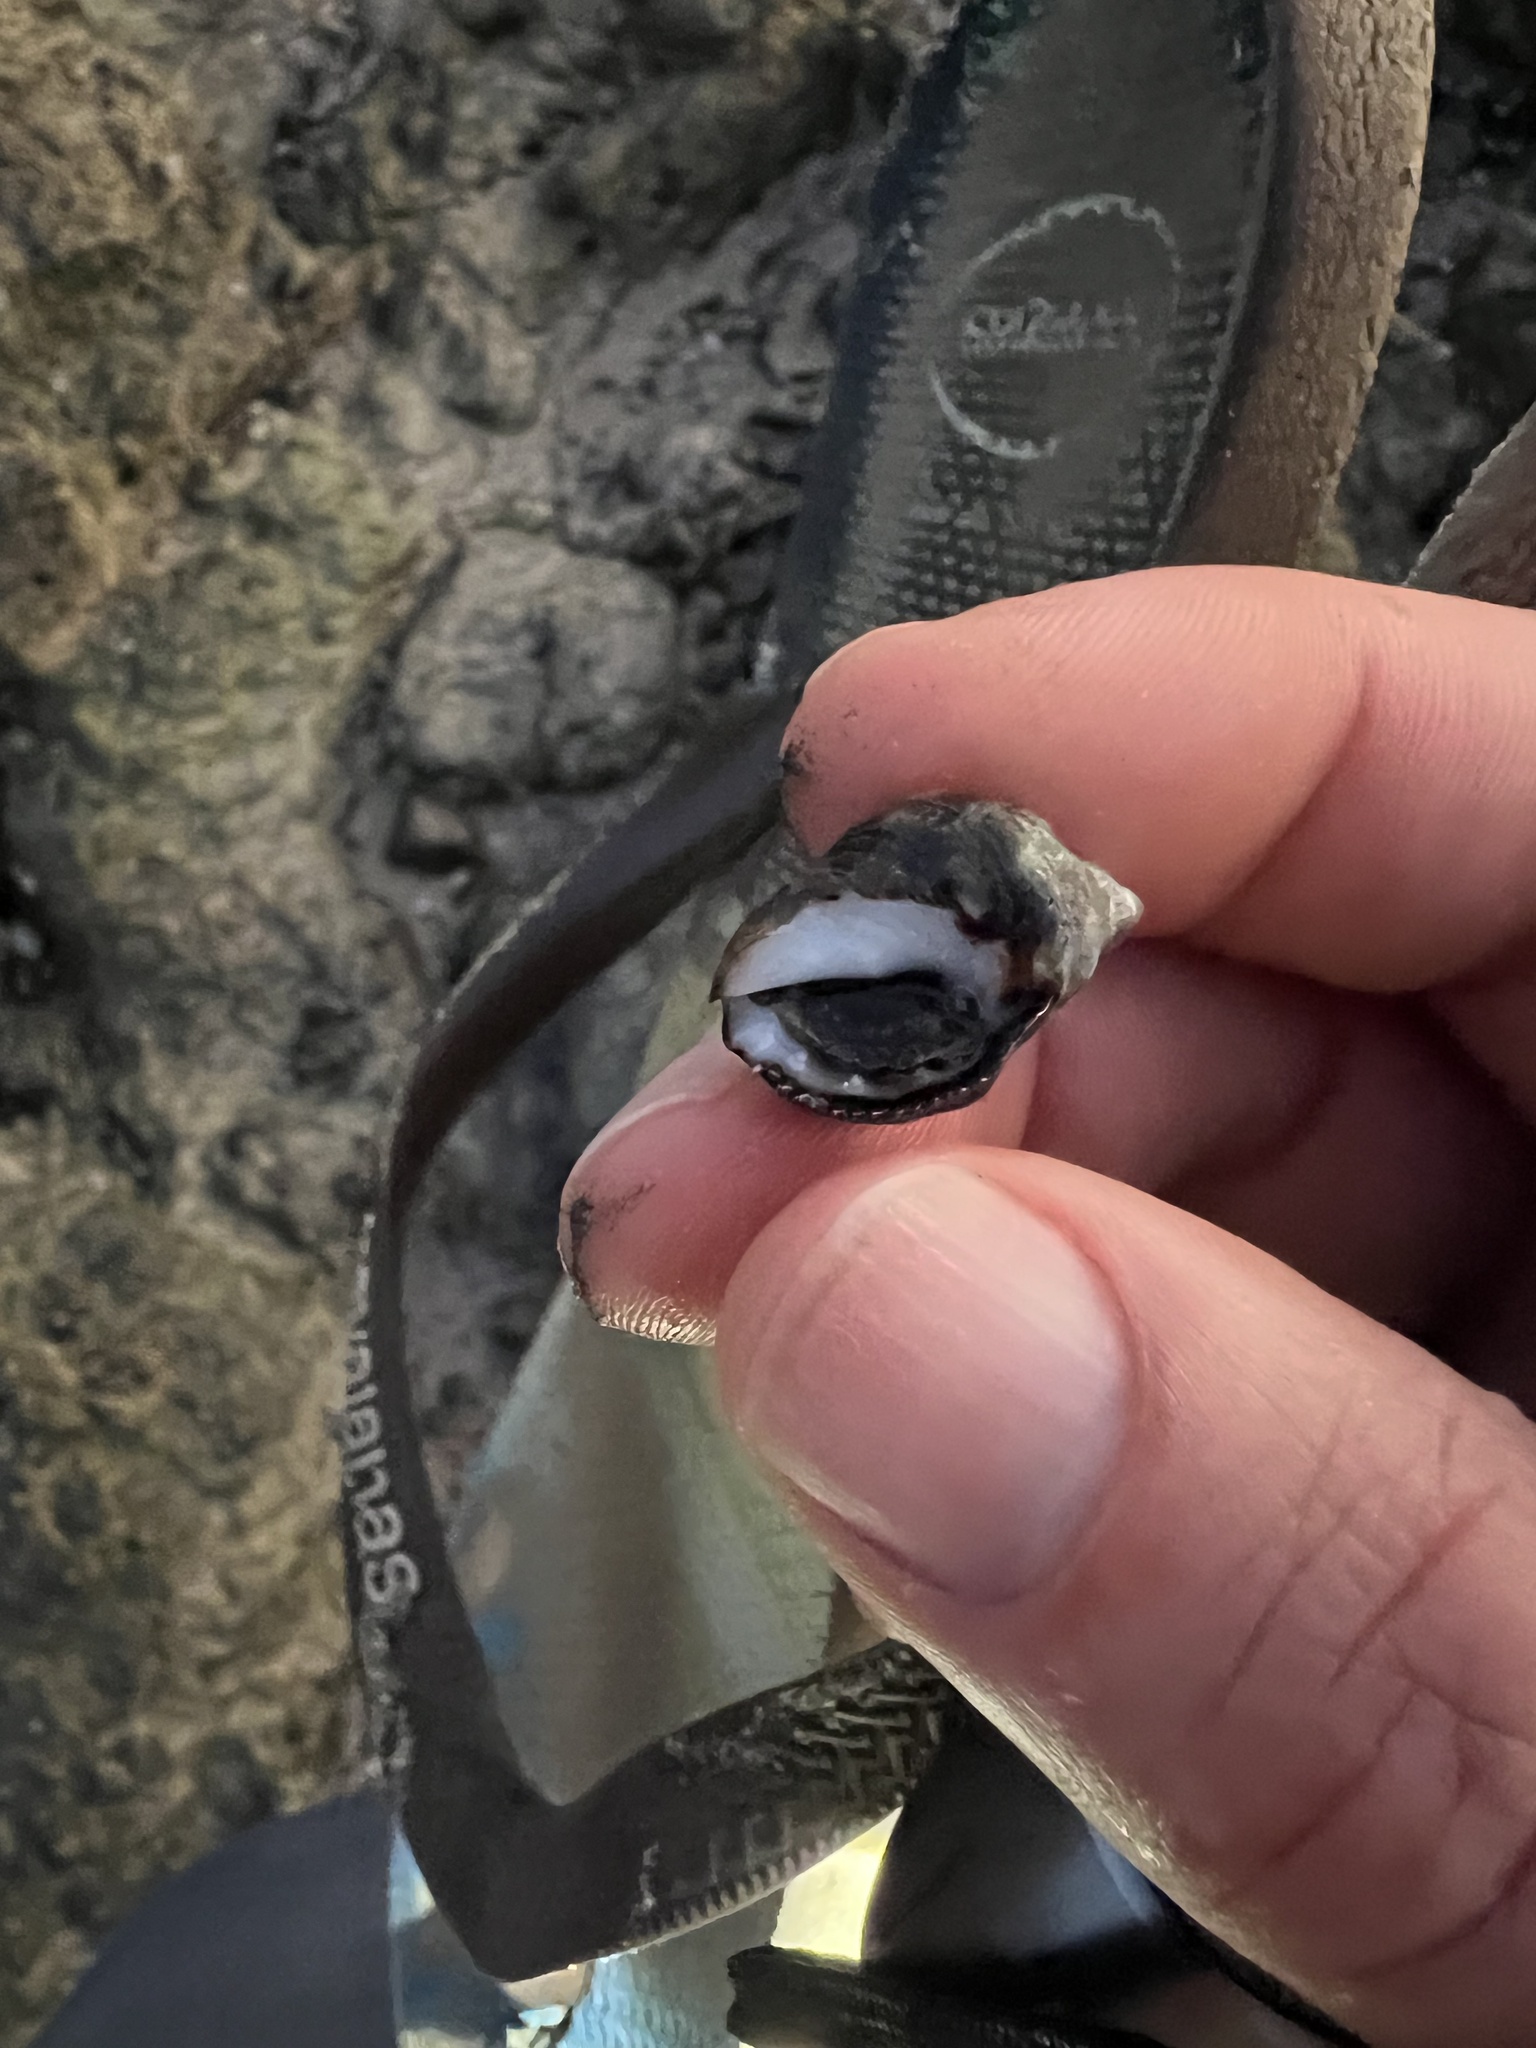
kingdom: Animalia
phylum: Mollusca
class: Gastropoda
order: Neogastropoda
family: Muricidae
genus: Acanthais
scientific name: Acanthais brevidentata
